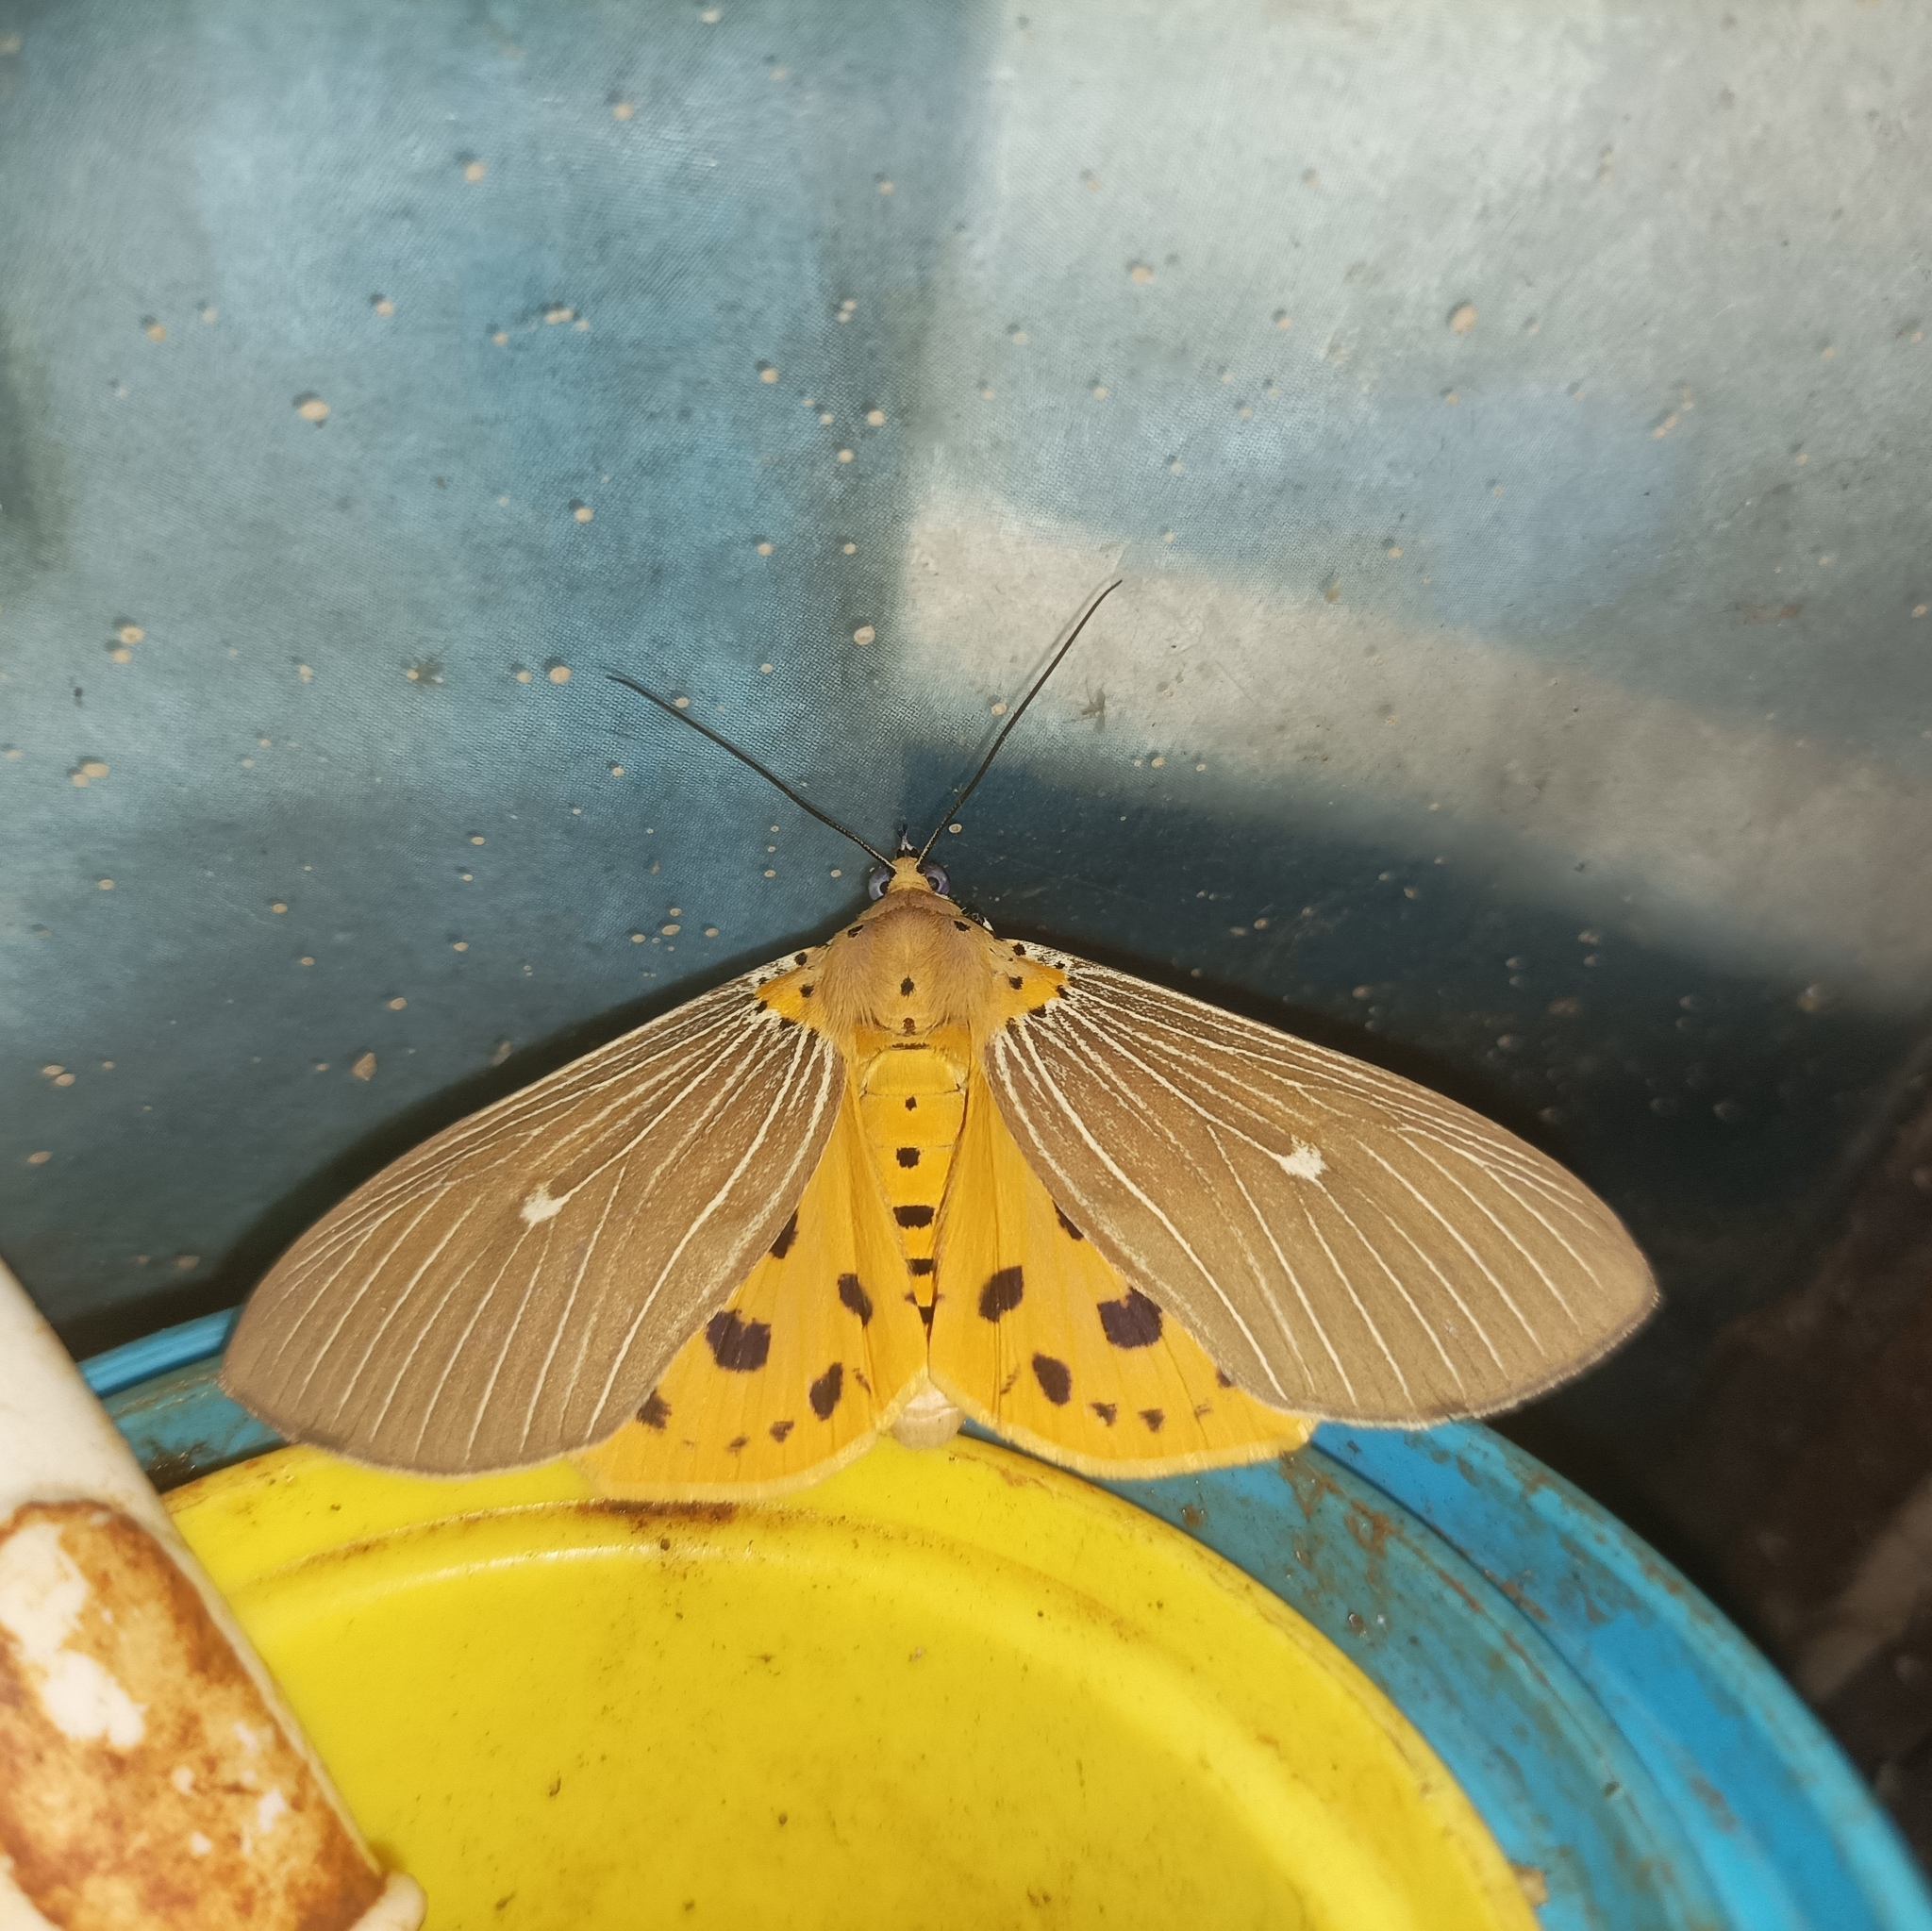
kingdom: Animalia
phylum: Arthropoda
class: Insecta
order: Lepidoptera
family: Erebidae
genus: Asota
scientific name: Asota caricae
